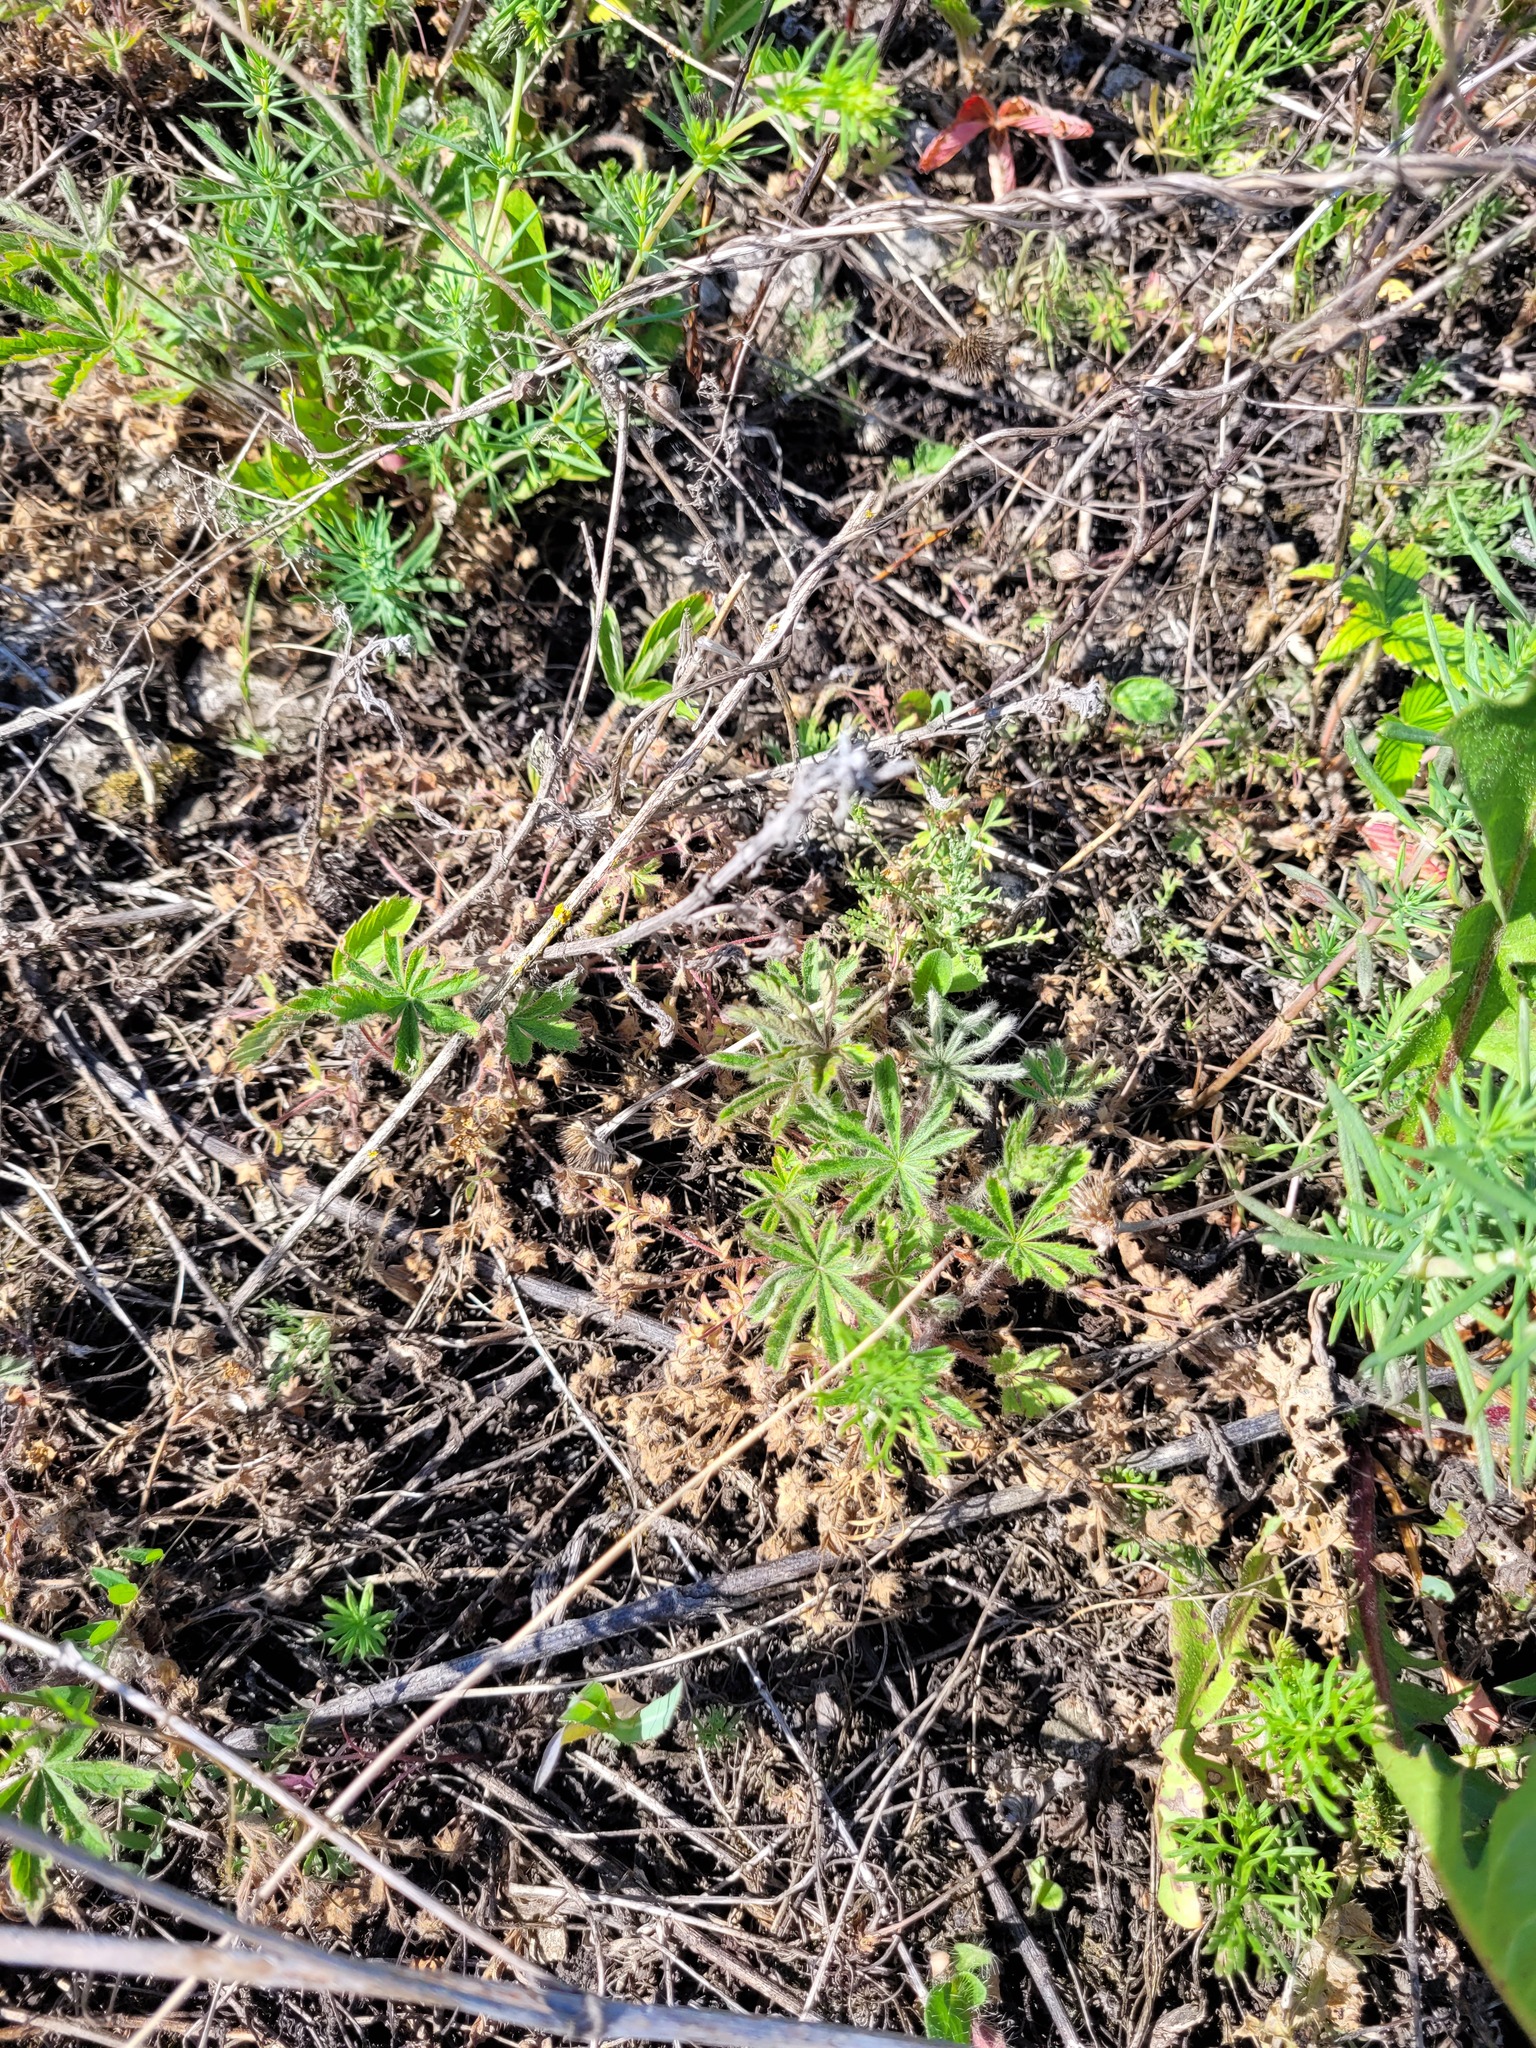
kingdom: Plantae
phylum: Tracheophyta
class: Magnoliopsida
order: Rosales
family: Rosaceae
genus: Potentilla
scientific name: Potentilla humifusa
